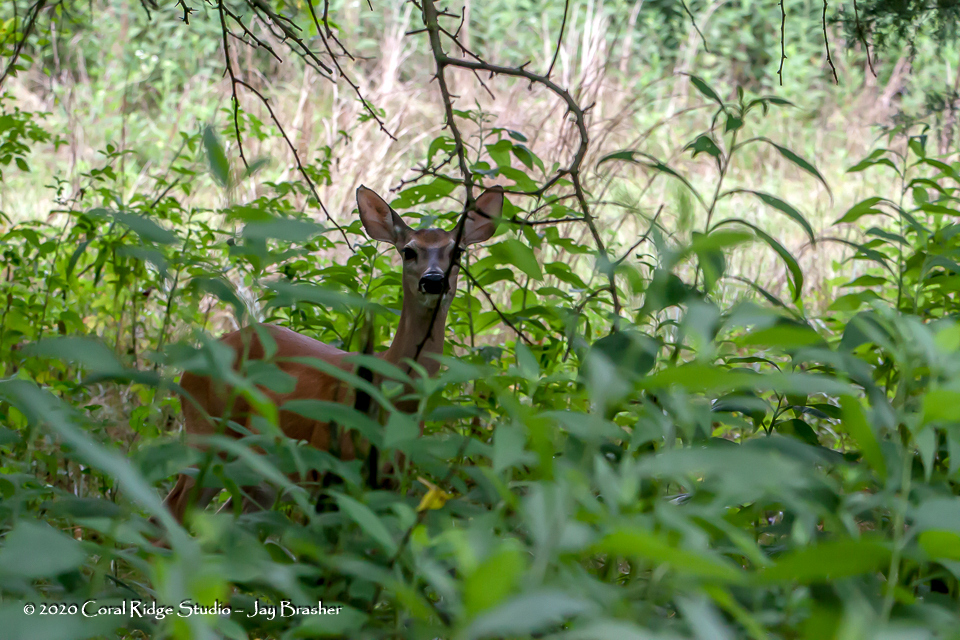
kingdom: Animalia
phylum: Chordata
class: Mammalia
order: Artiodactyla
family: Cervidae
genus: Odocoileus
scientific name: Odocoileus virginianus
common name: White-tailed deer
